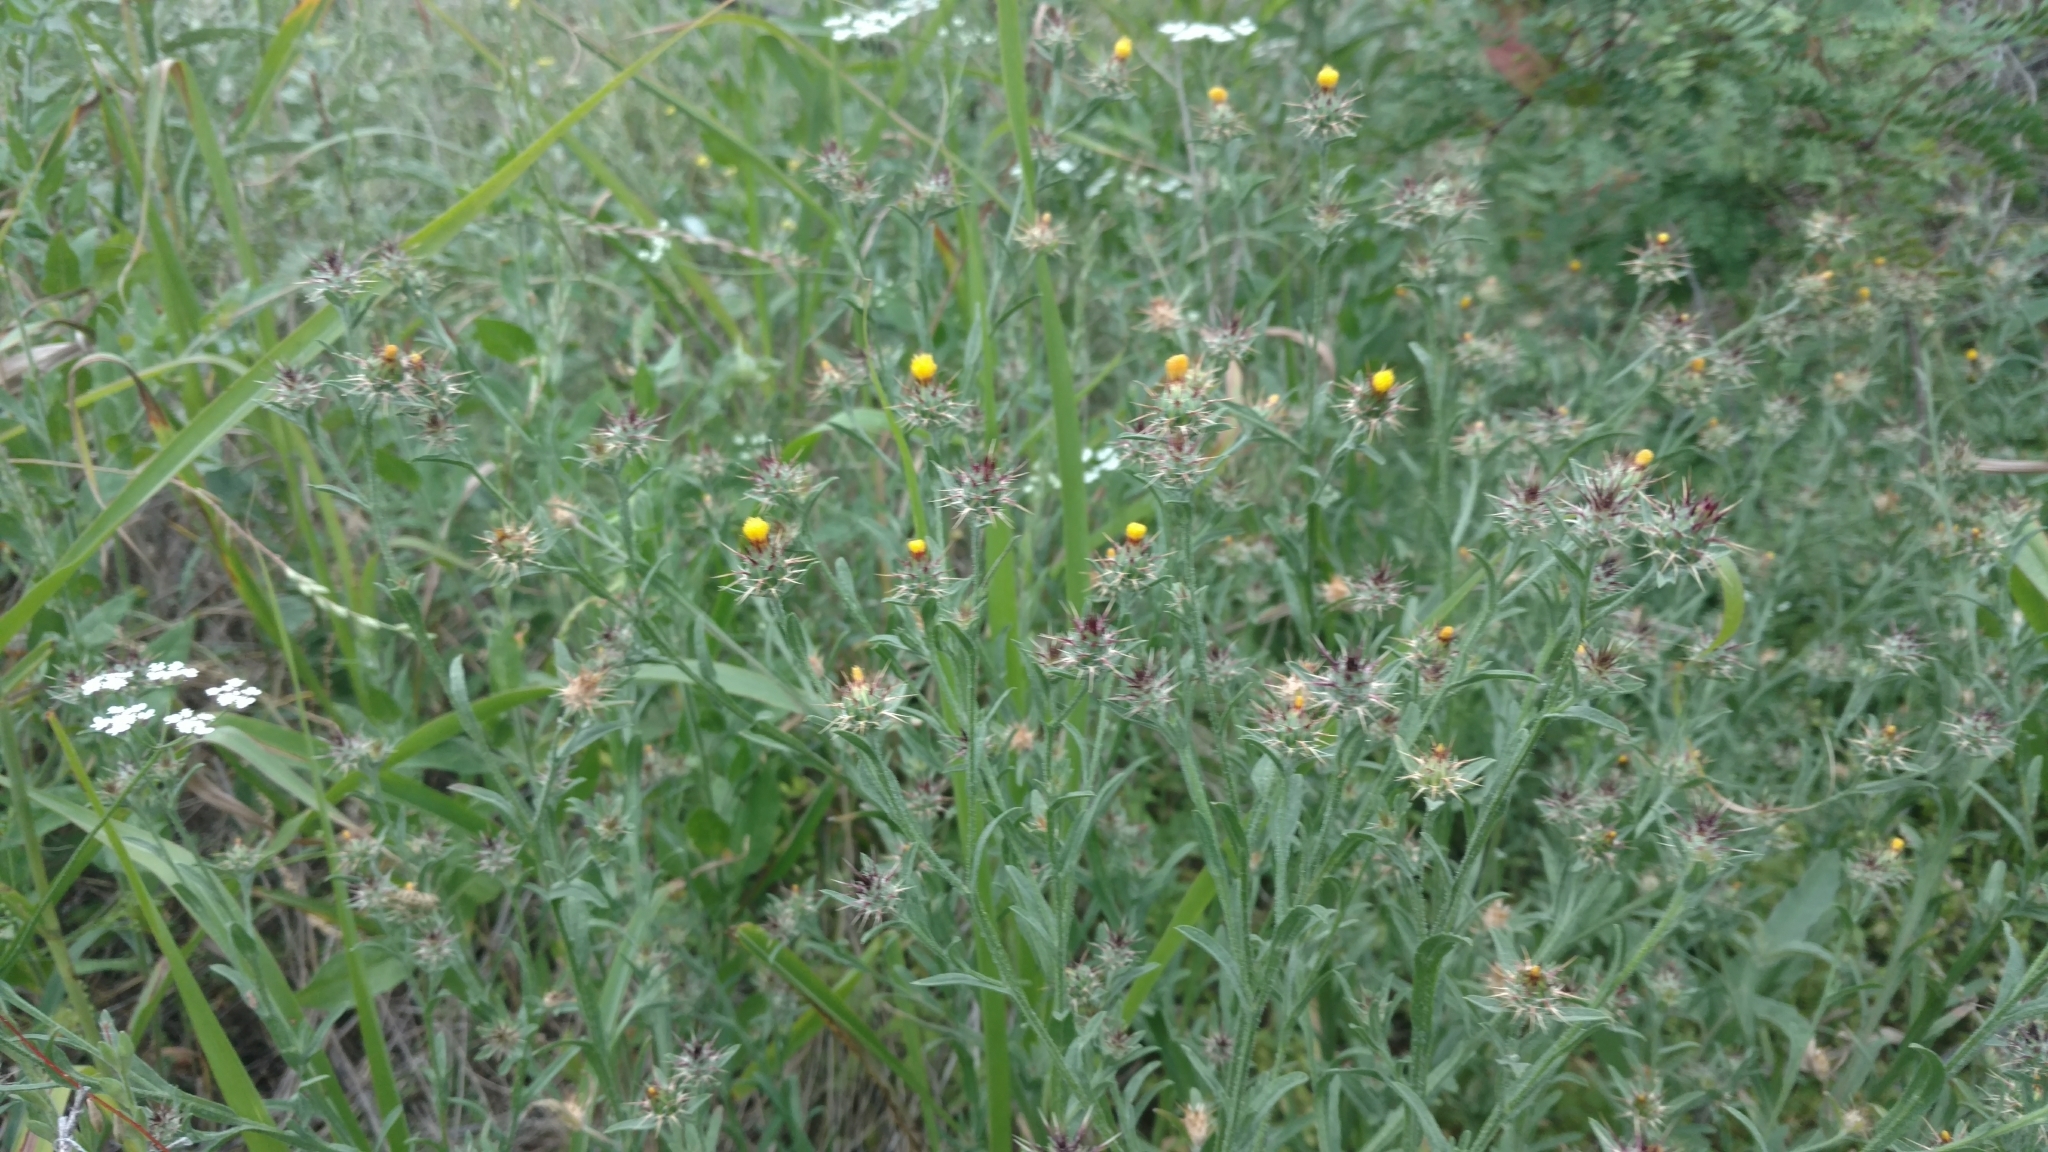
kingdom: Plantae
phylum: Tracheophyta
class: Magnoliopsida
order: Asterales
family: Asteraceae
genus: Centaurea
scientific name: Centaurea melitensis
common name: Maltese star-thistle
